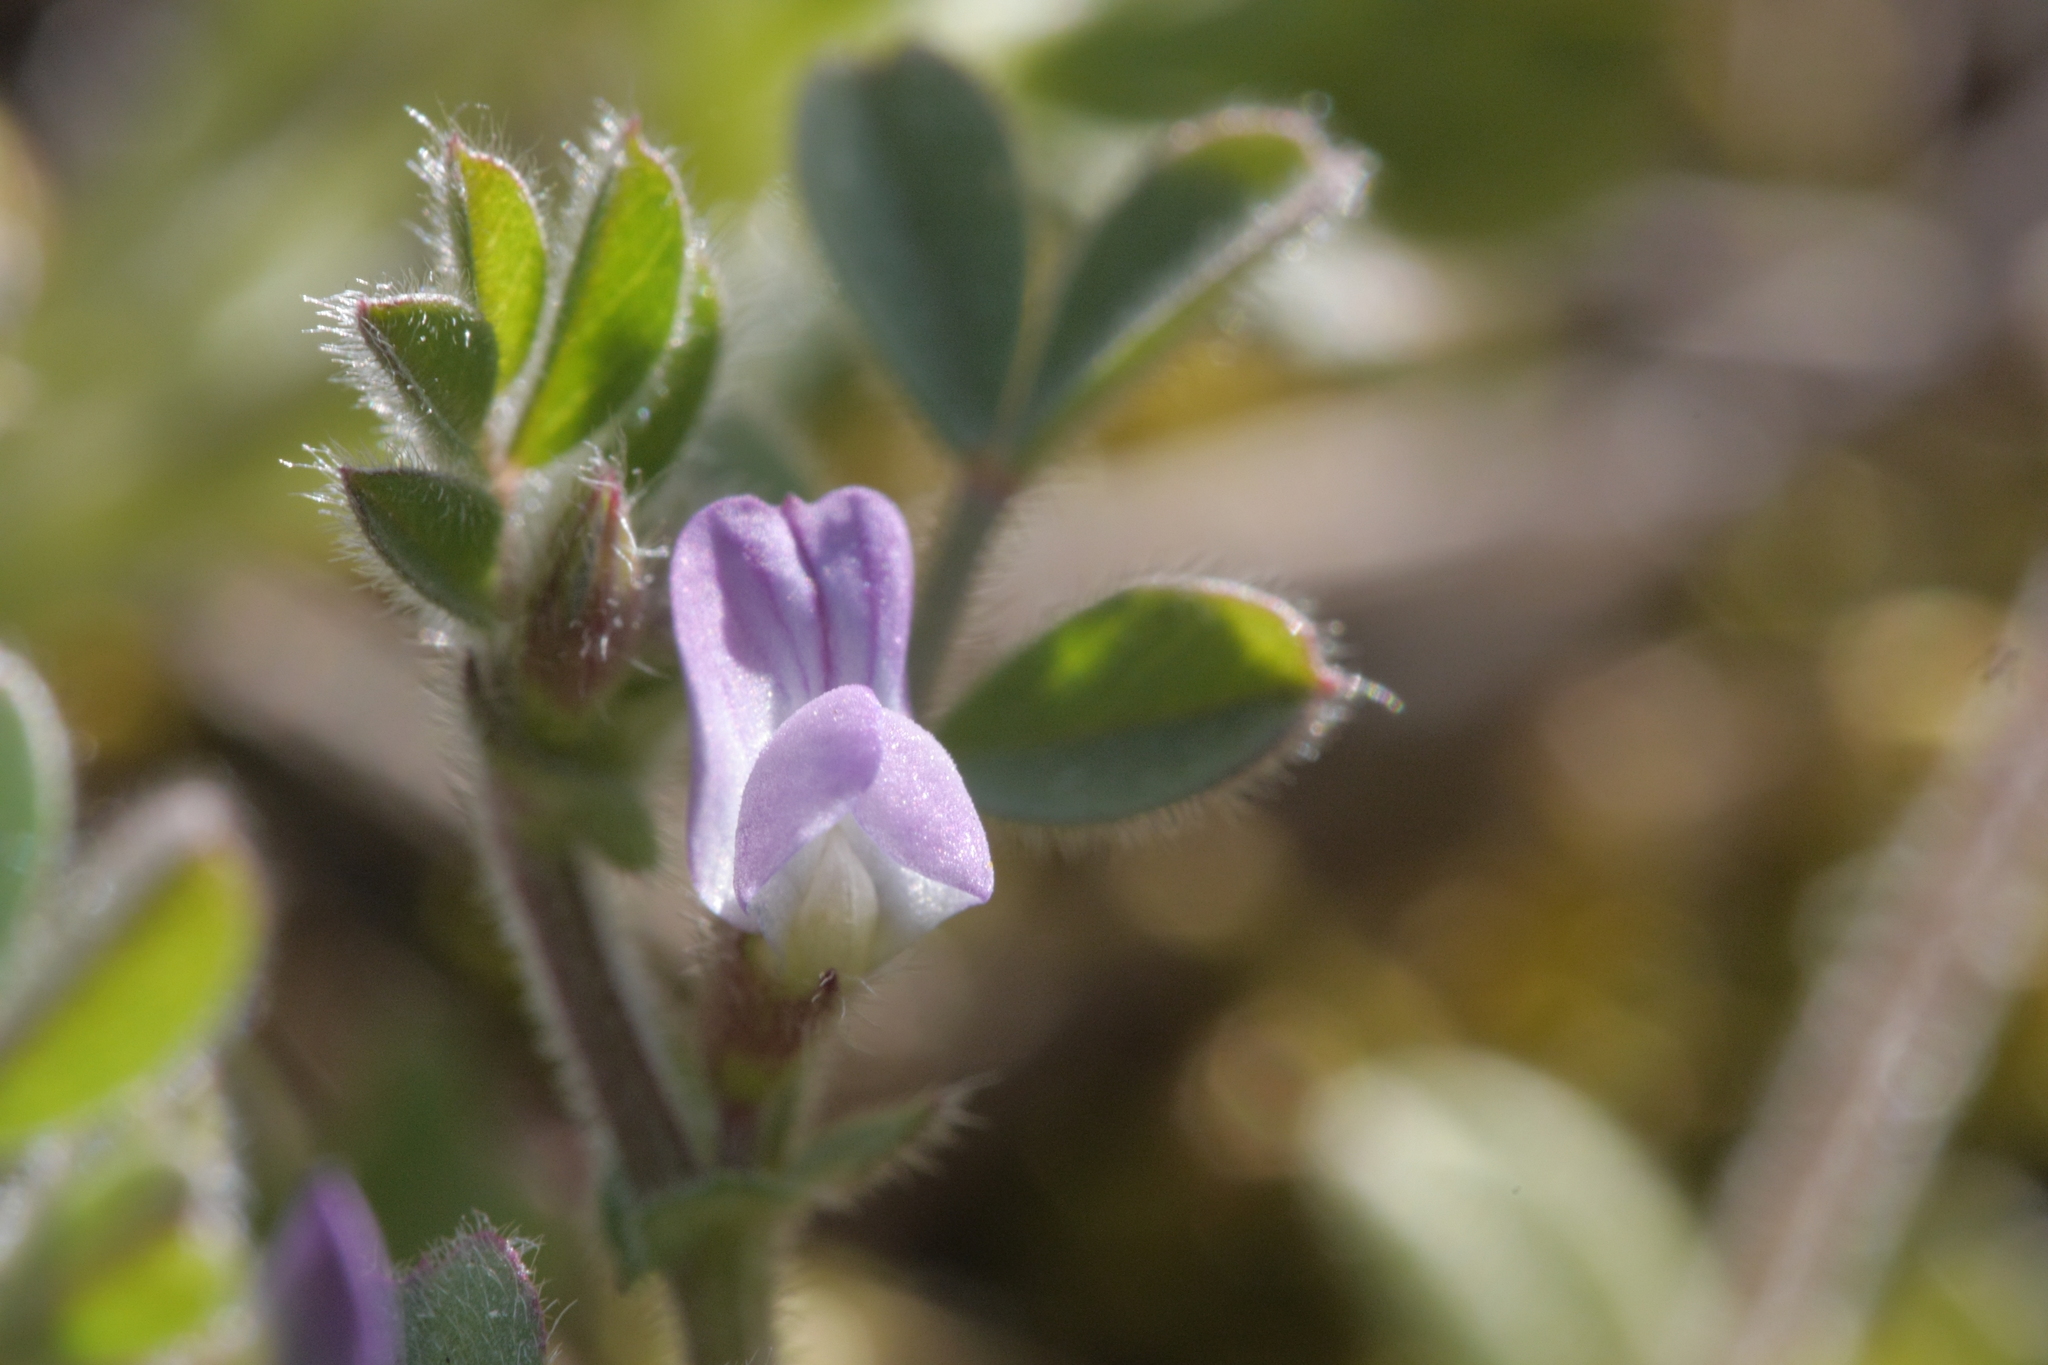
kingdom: Plantae
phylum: Tracheophyta
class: Magnoliopsida
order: Fabales
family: Fabaceae
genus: Vicia
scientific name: Vicia lathyroides
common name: Spring vetch
